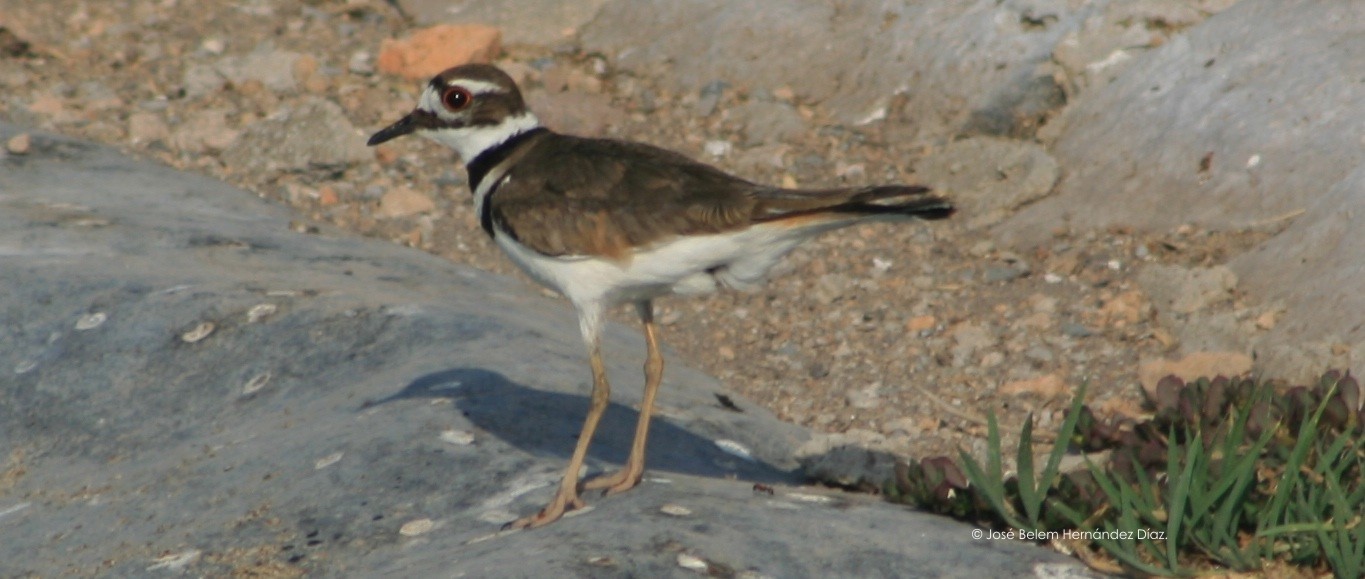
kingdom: Animalia
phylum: Chordata
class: Aves
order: Charadriiformes
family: Charadriidae
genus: Charadrius
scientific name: Charadrius vociferus
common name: Killdeer
